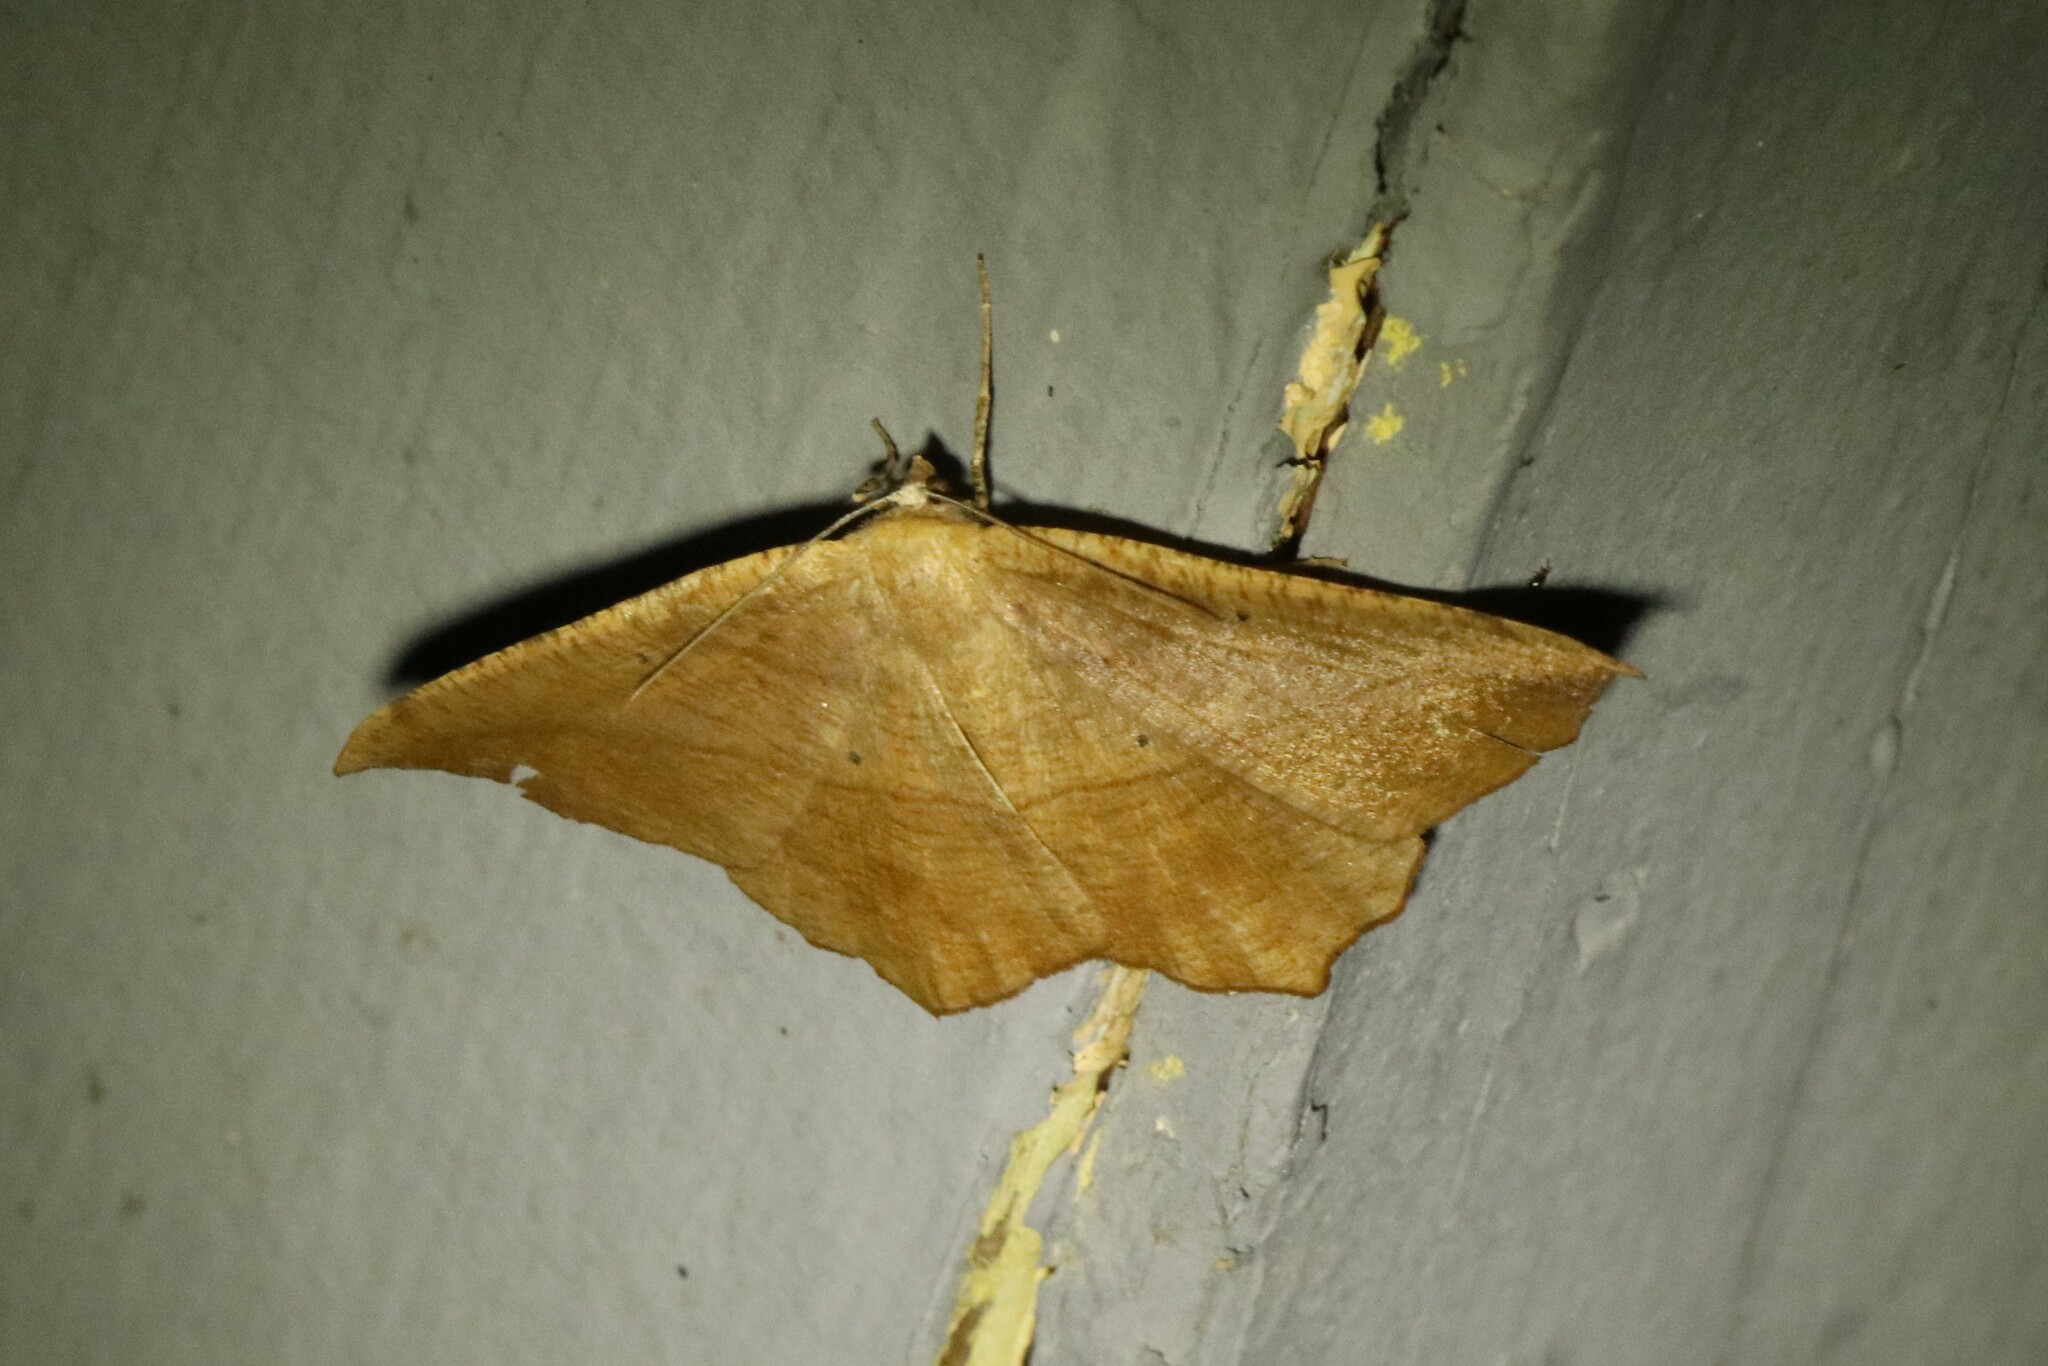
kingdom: Animalia
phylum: Arthropoda
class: Insecta
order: Lepidoptera
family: Geometridae
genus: Prochoerodes
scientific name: Prochoerodes lineola
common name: Large maple spanworm
